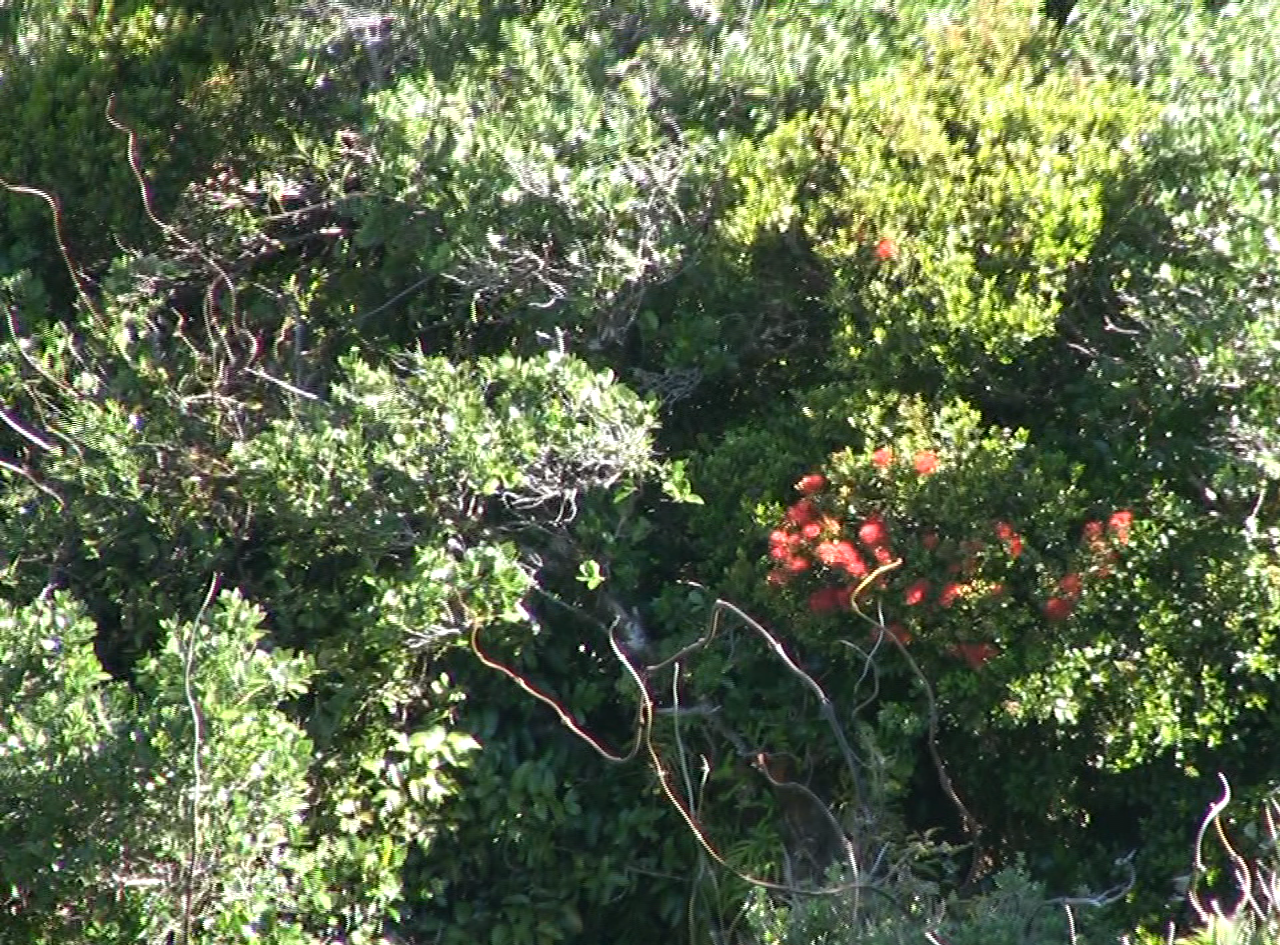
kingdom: Plantae
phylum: Tracheophyta
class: Magnoliopsida
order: Myrtales
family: Myrtaceae
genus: Metrosideros
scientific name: Metrosideros fulgens
